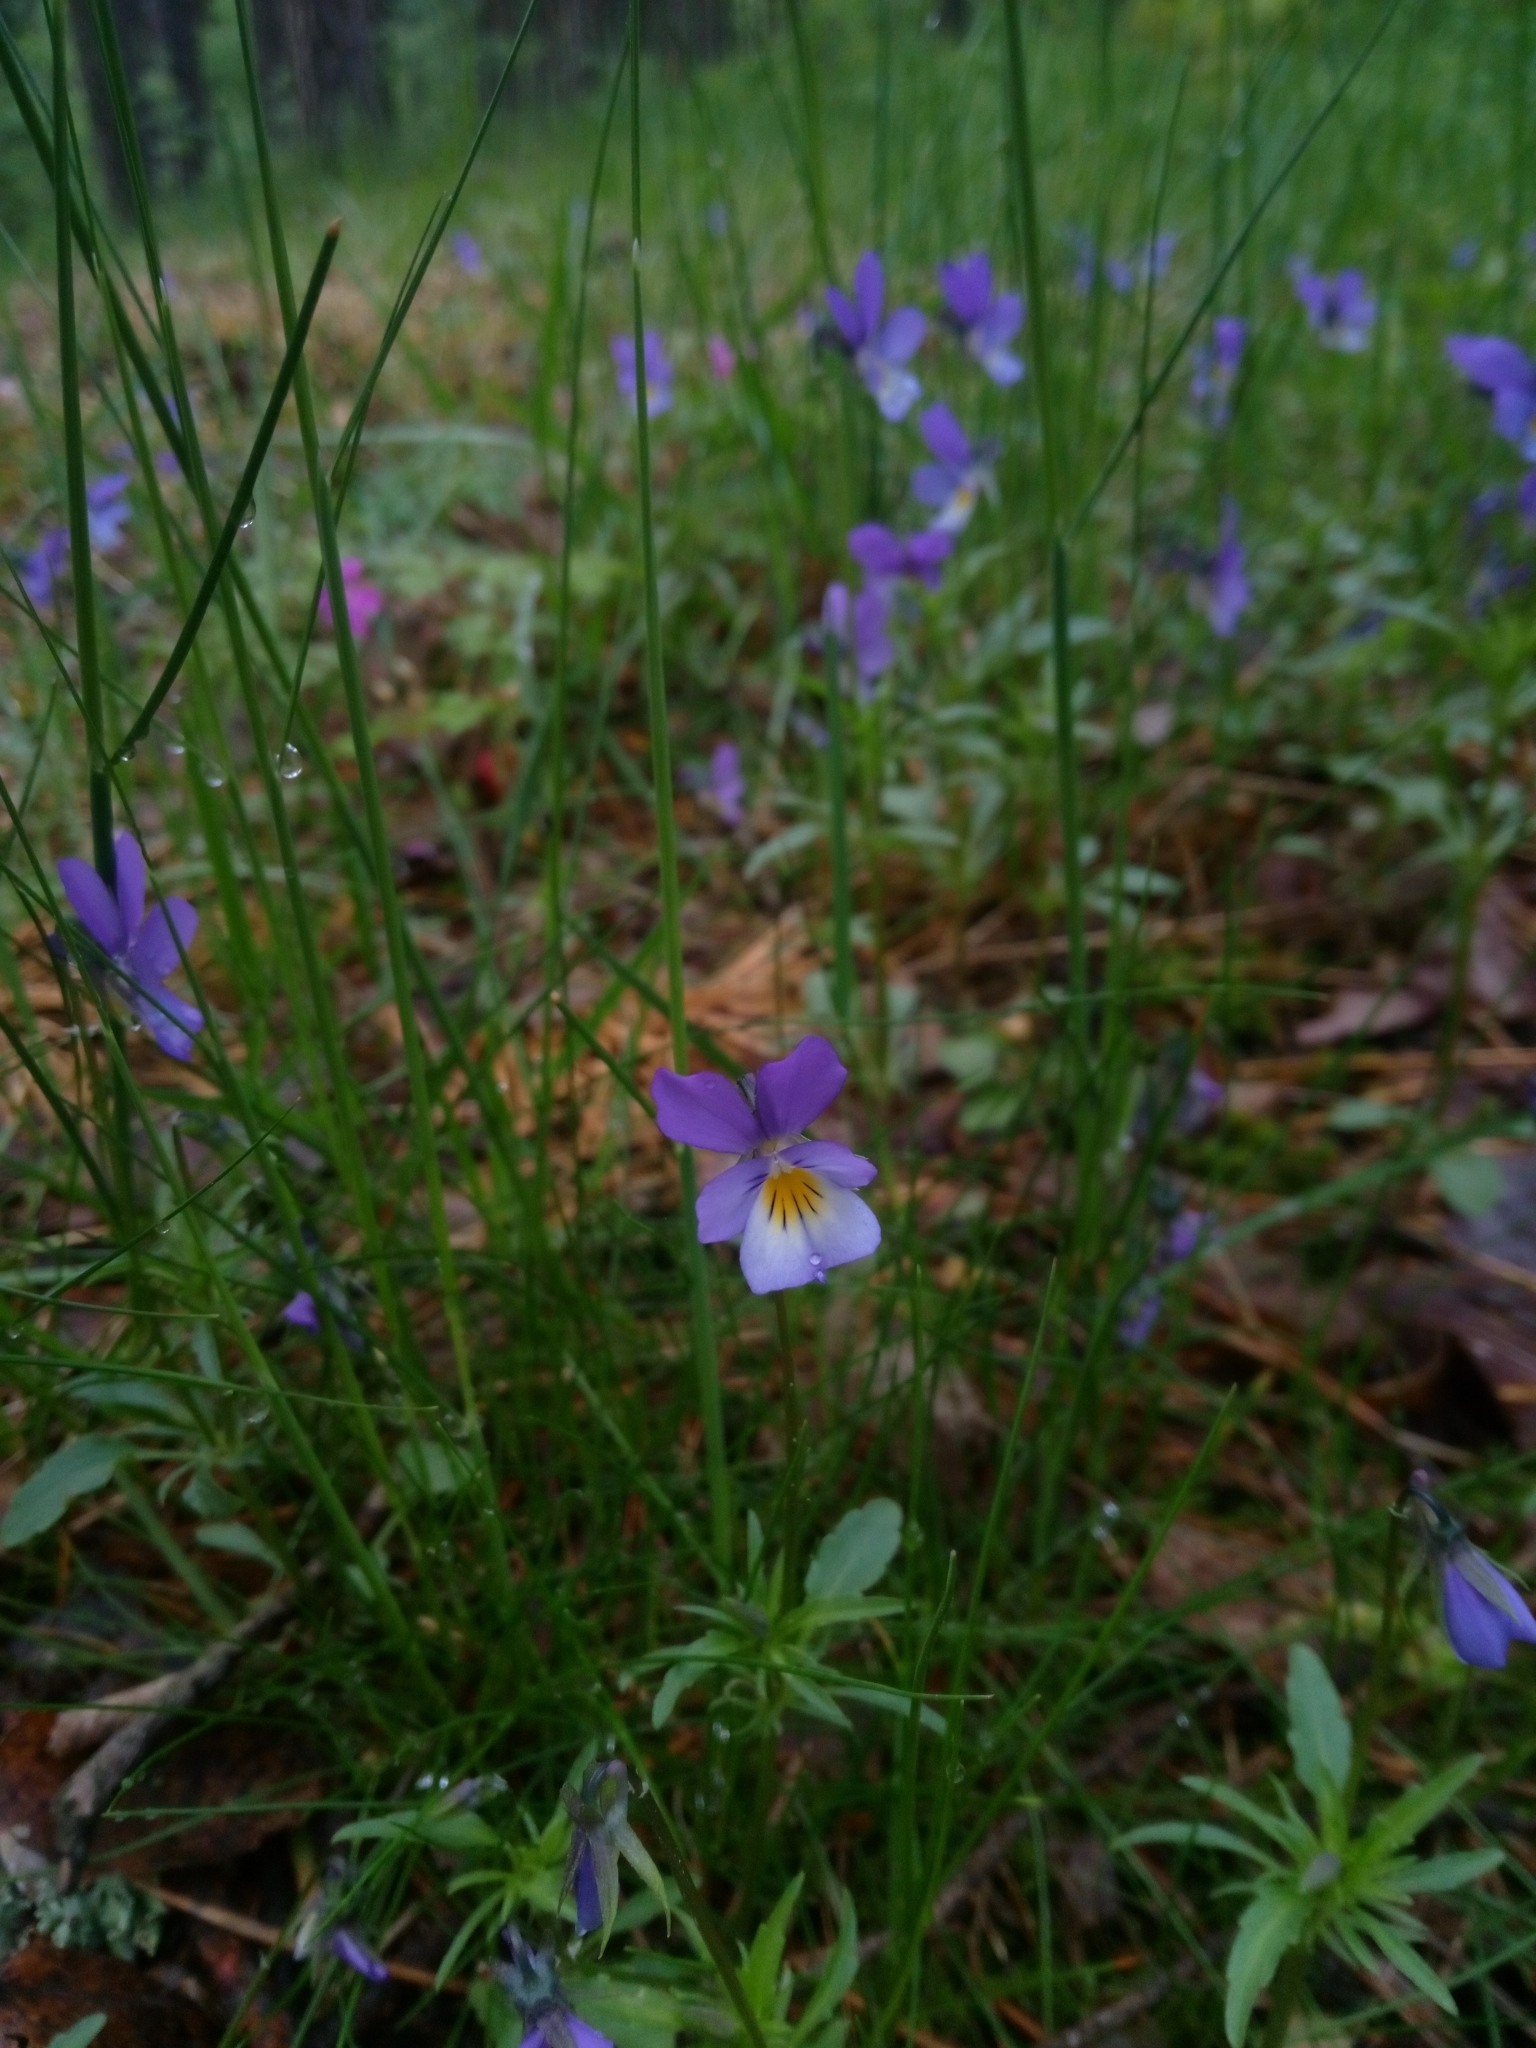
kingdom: Plantae
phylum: Tracheophyta
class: Magnoliopsida
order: Malpighiales
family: Violaceae
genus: Viola
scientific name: Viola tricolor
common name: Pansy
